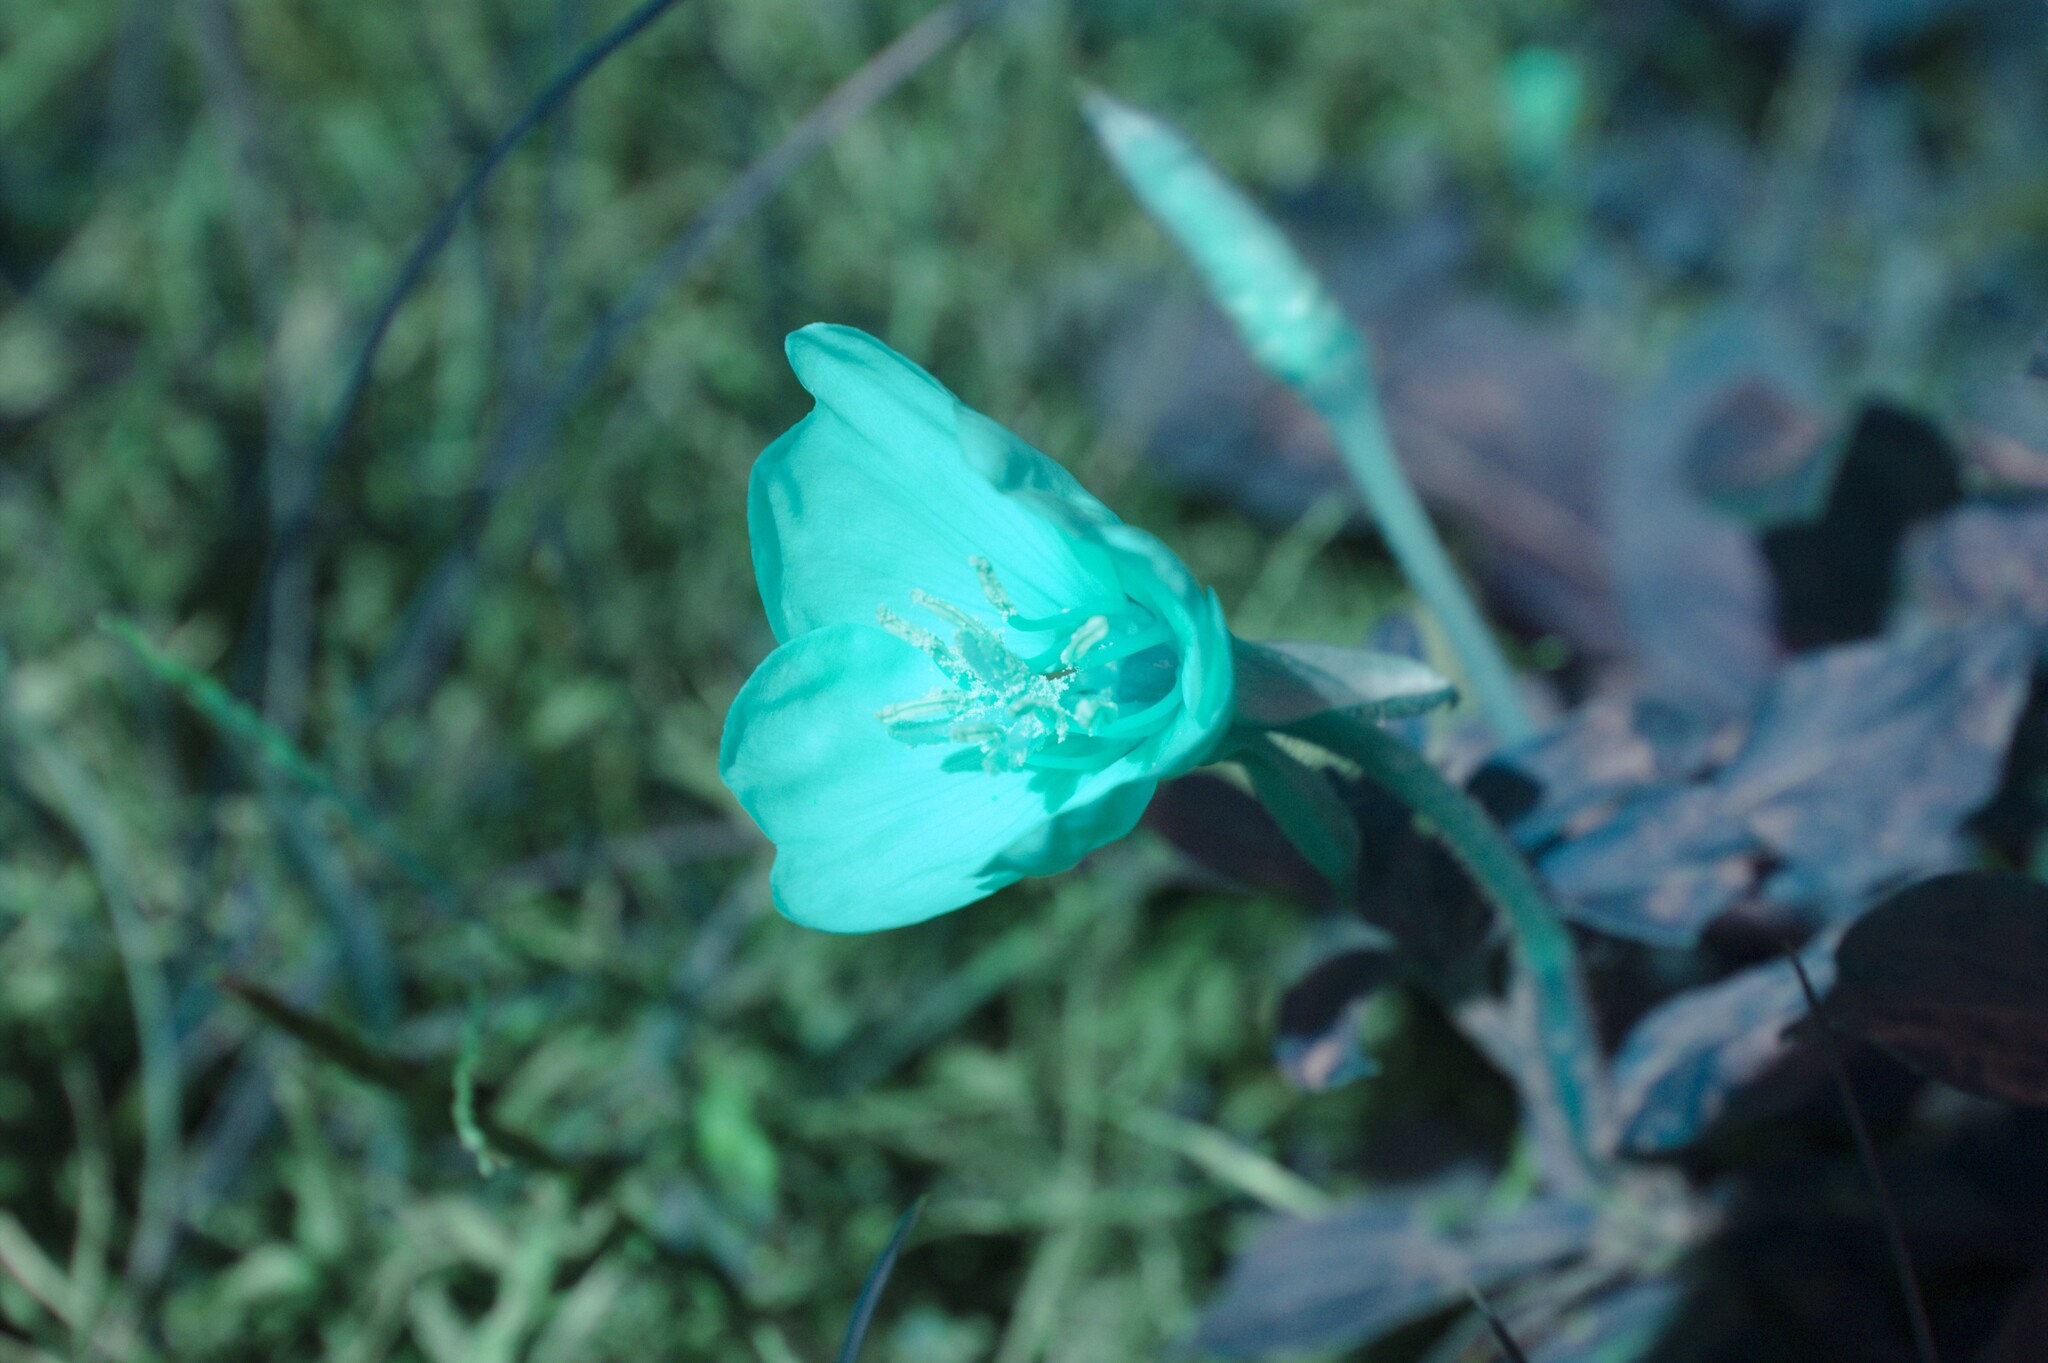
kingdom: Plantae
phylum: Tracheophyta
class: Magnoliopsida
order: Myrtales
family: Onagraceae
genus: Oenothera
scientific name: Oenothera biennis
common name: Common evening-primrose
